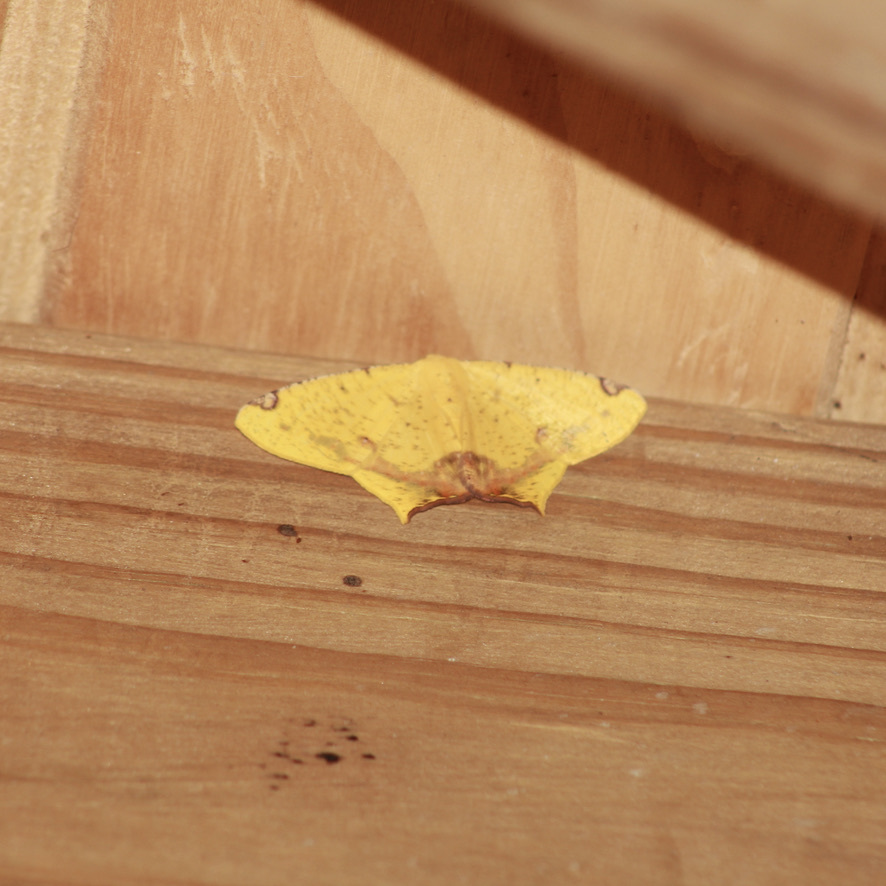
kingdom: Animalia
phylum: Arthropoda
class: Insecta
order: Lepidoptera
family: Geometridae
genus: Nepheloleuca
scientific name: Nepheloleuca politia
